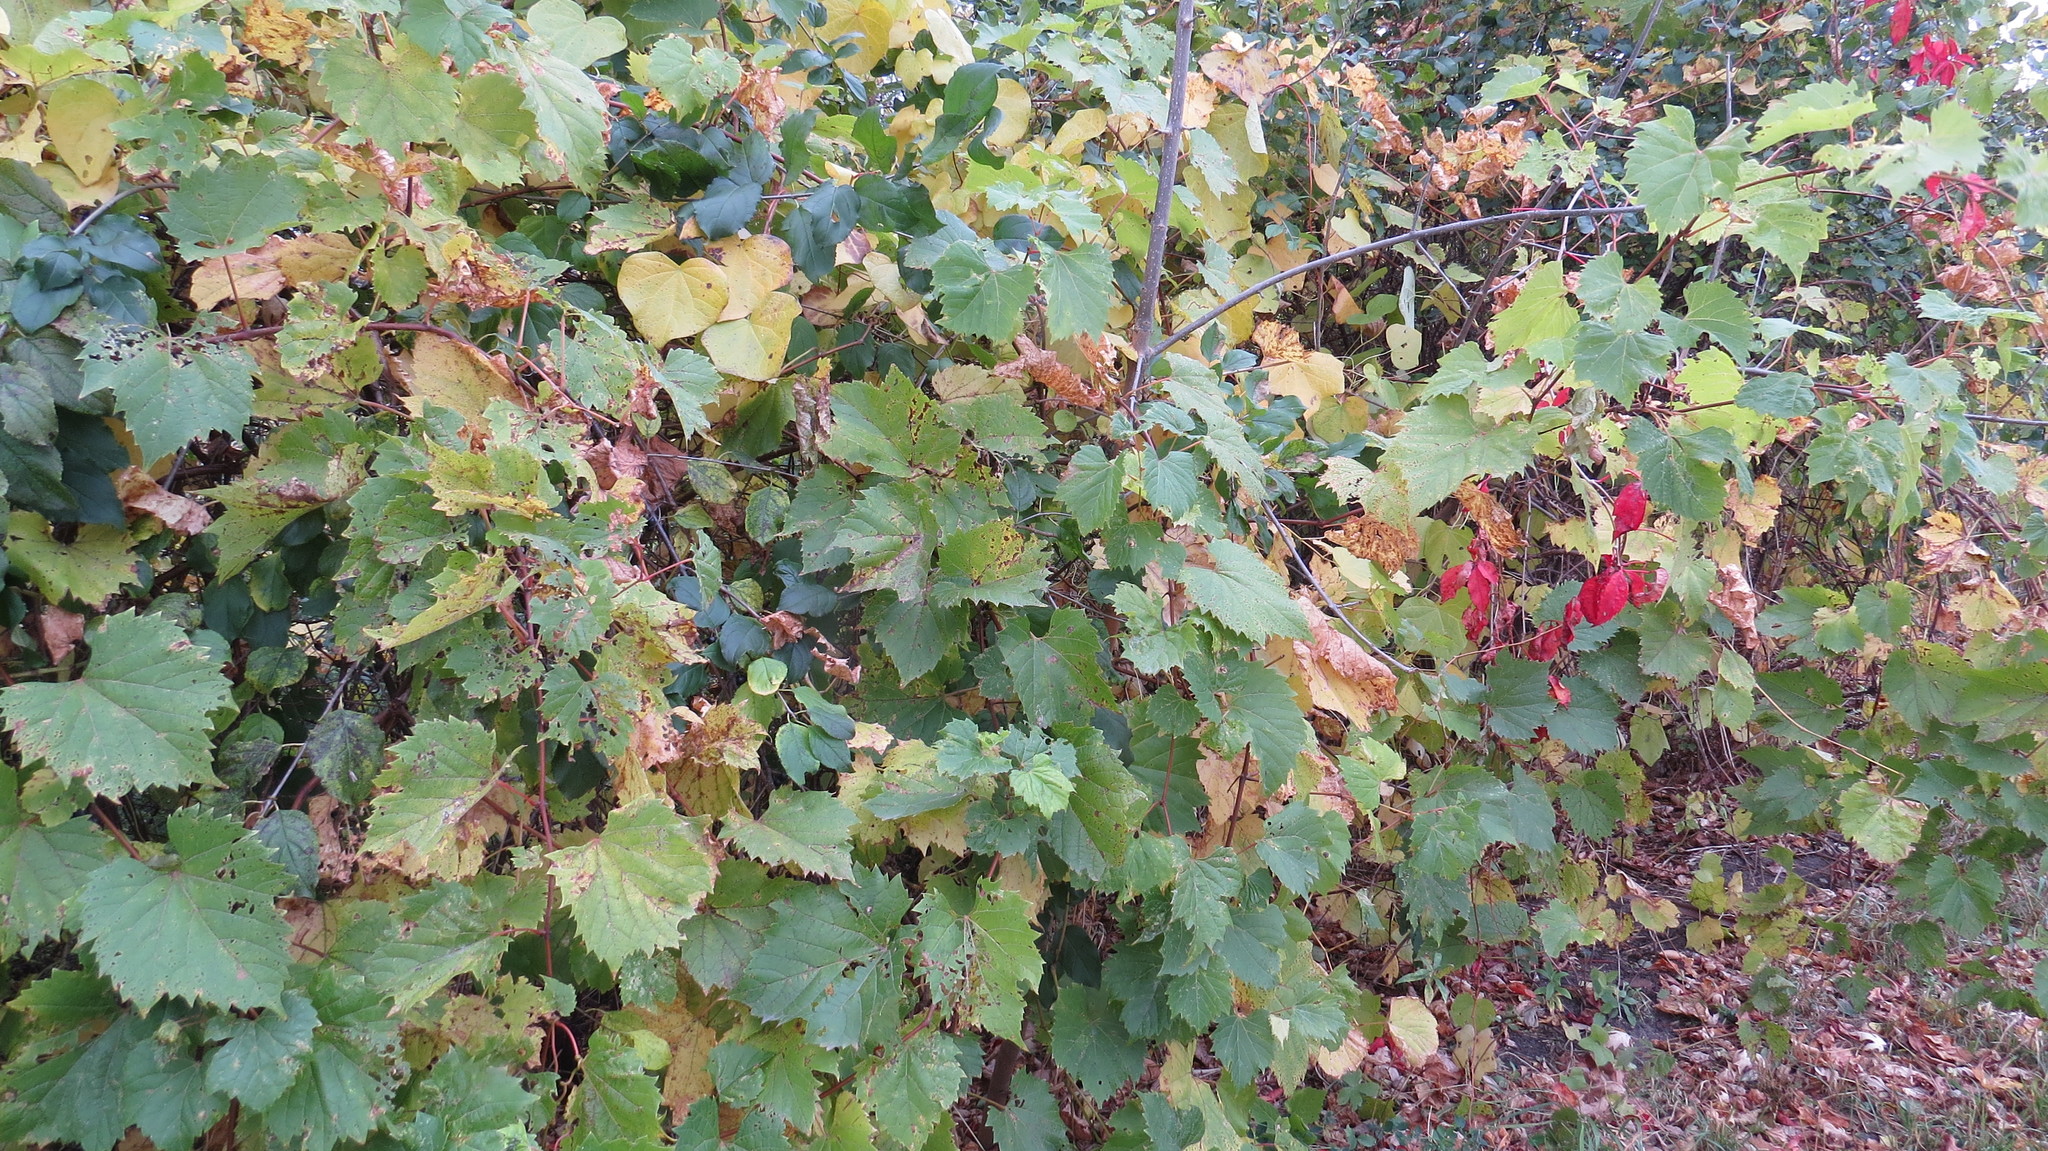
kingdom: Plantae
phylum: Tracheophyta
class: Magnoliopsida
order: Vitales
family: Vitaceae
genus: Vitis
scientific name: Vitis riparia
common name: Frost grape
